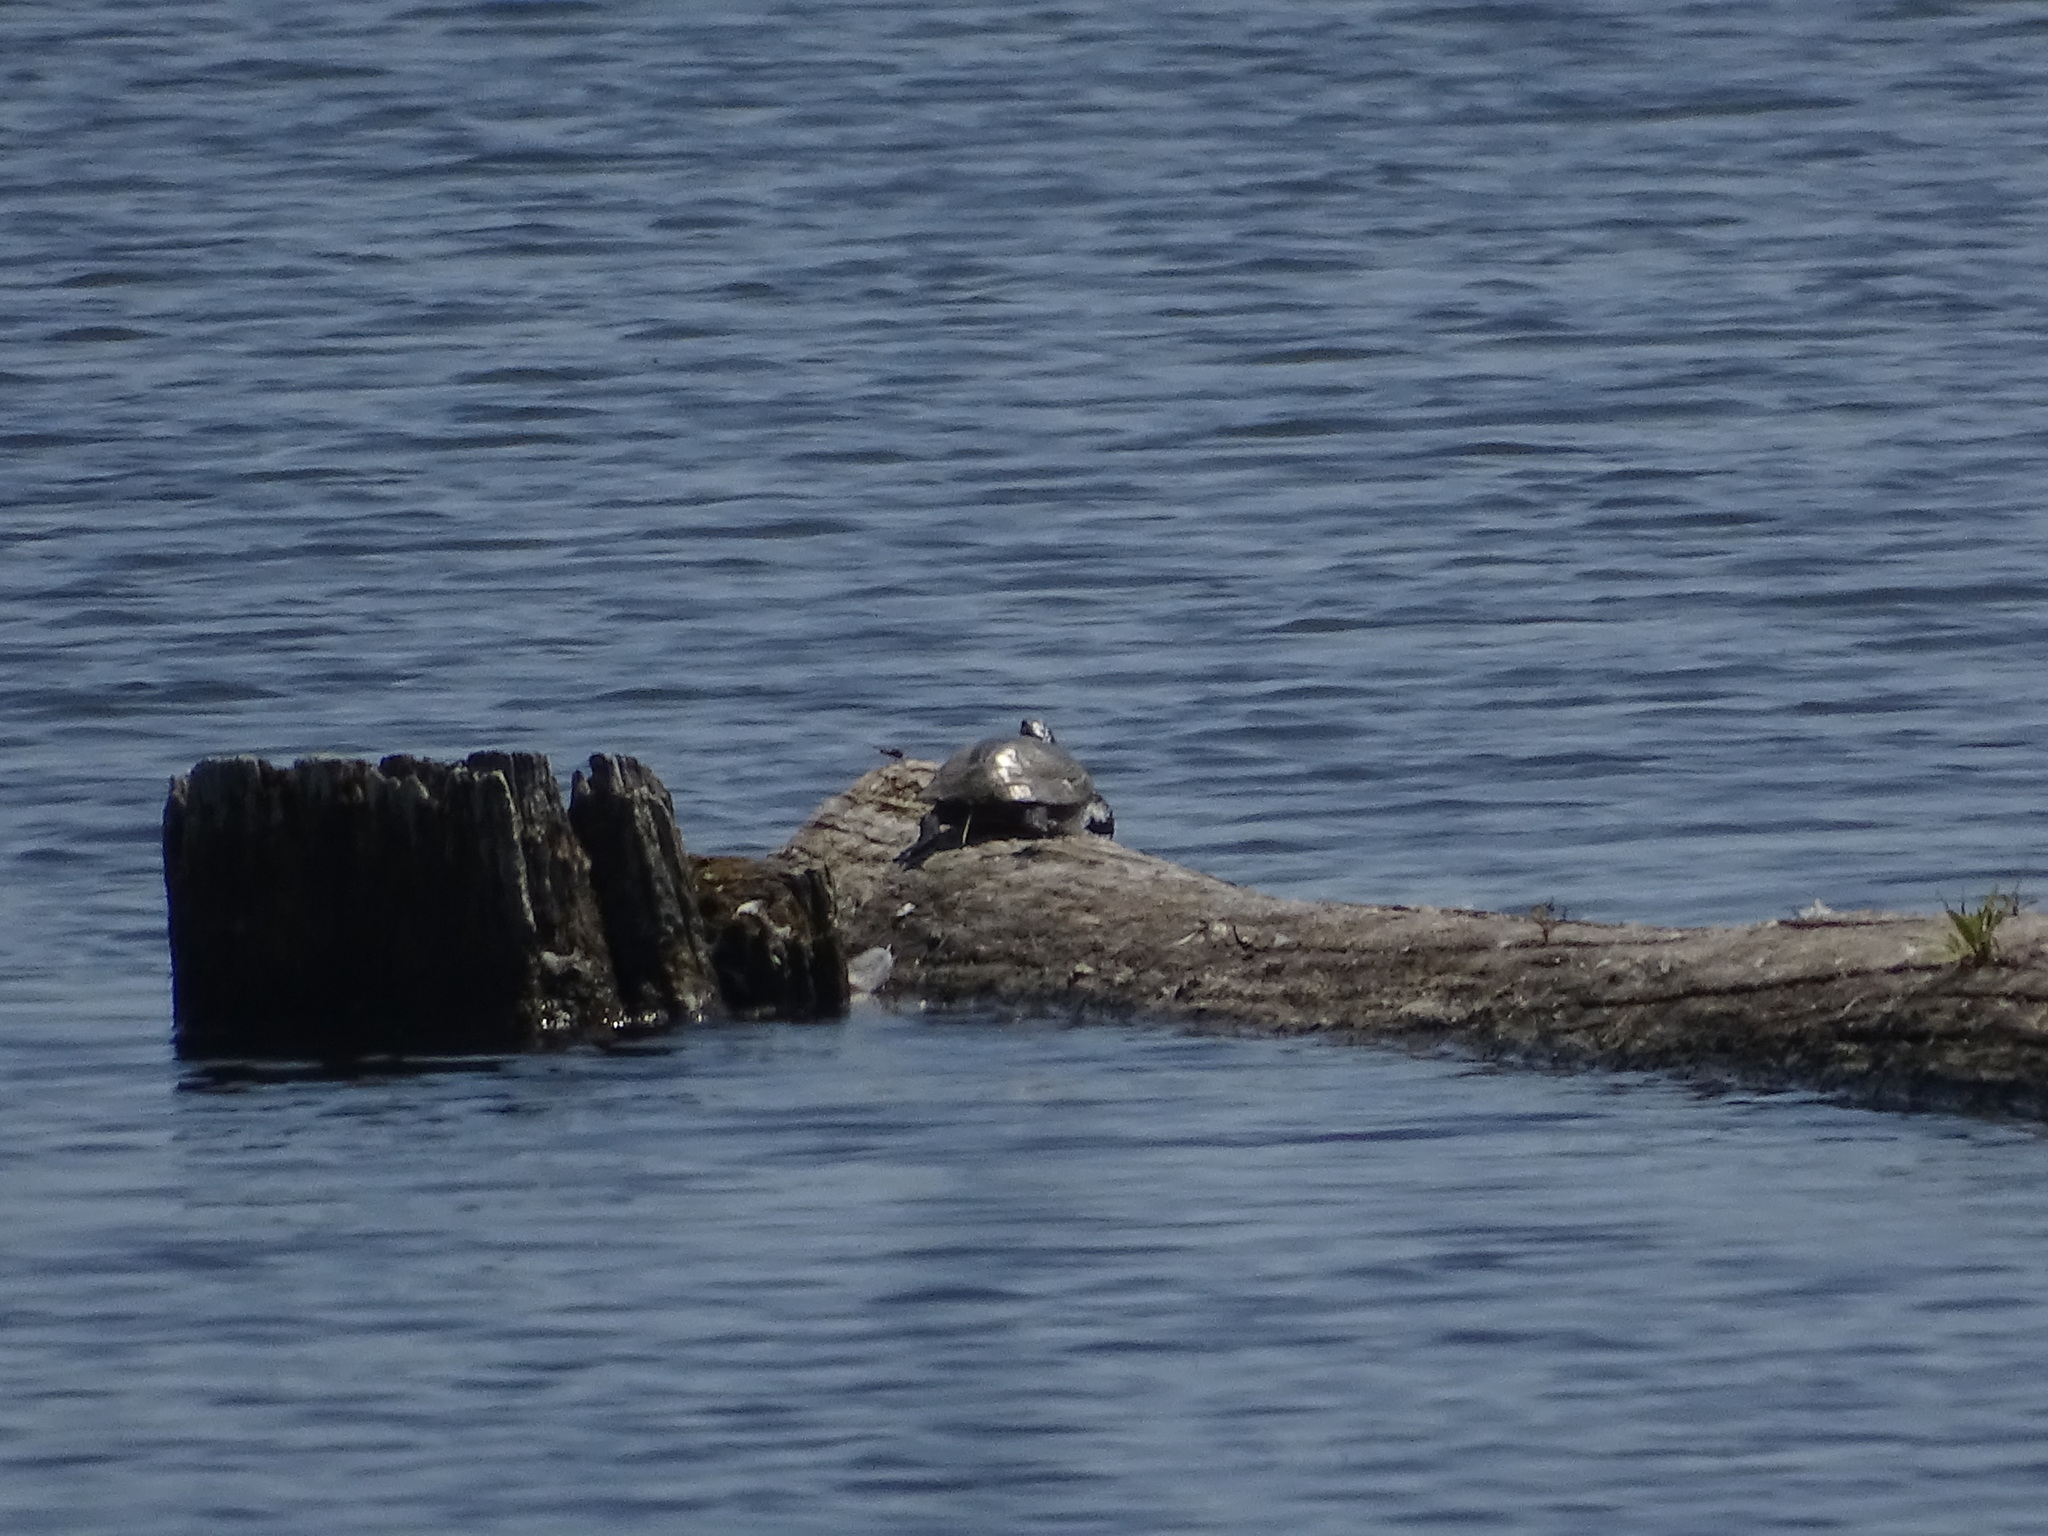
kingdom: Animalia
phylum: Chordata
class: Testudines
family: Emydidae
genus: Trachemys
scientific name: Trachemys scripta
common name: Slider
